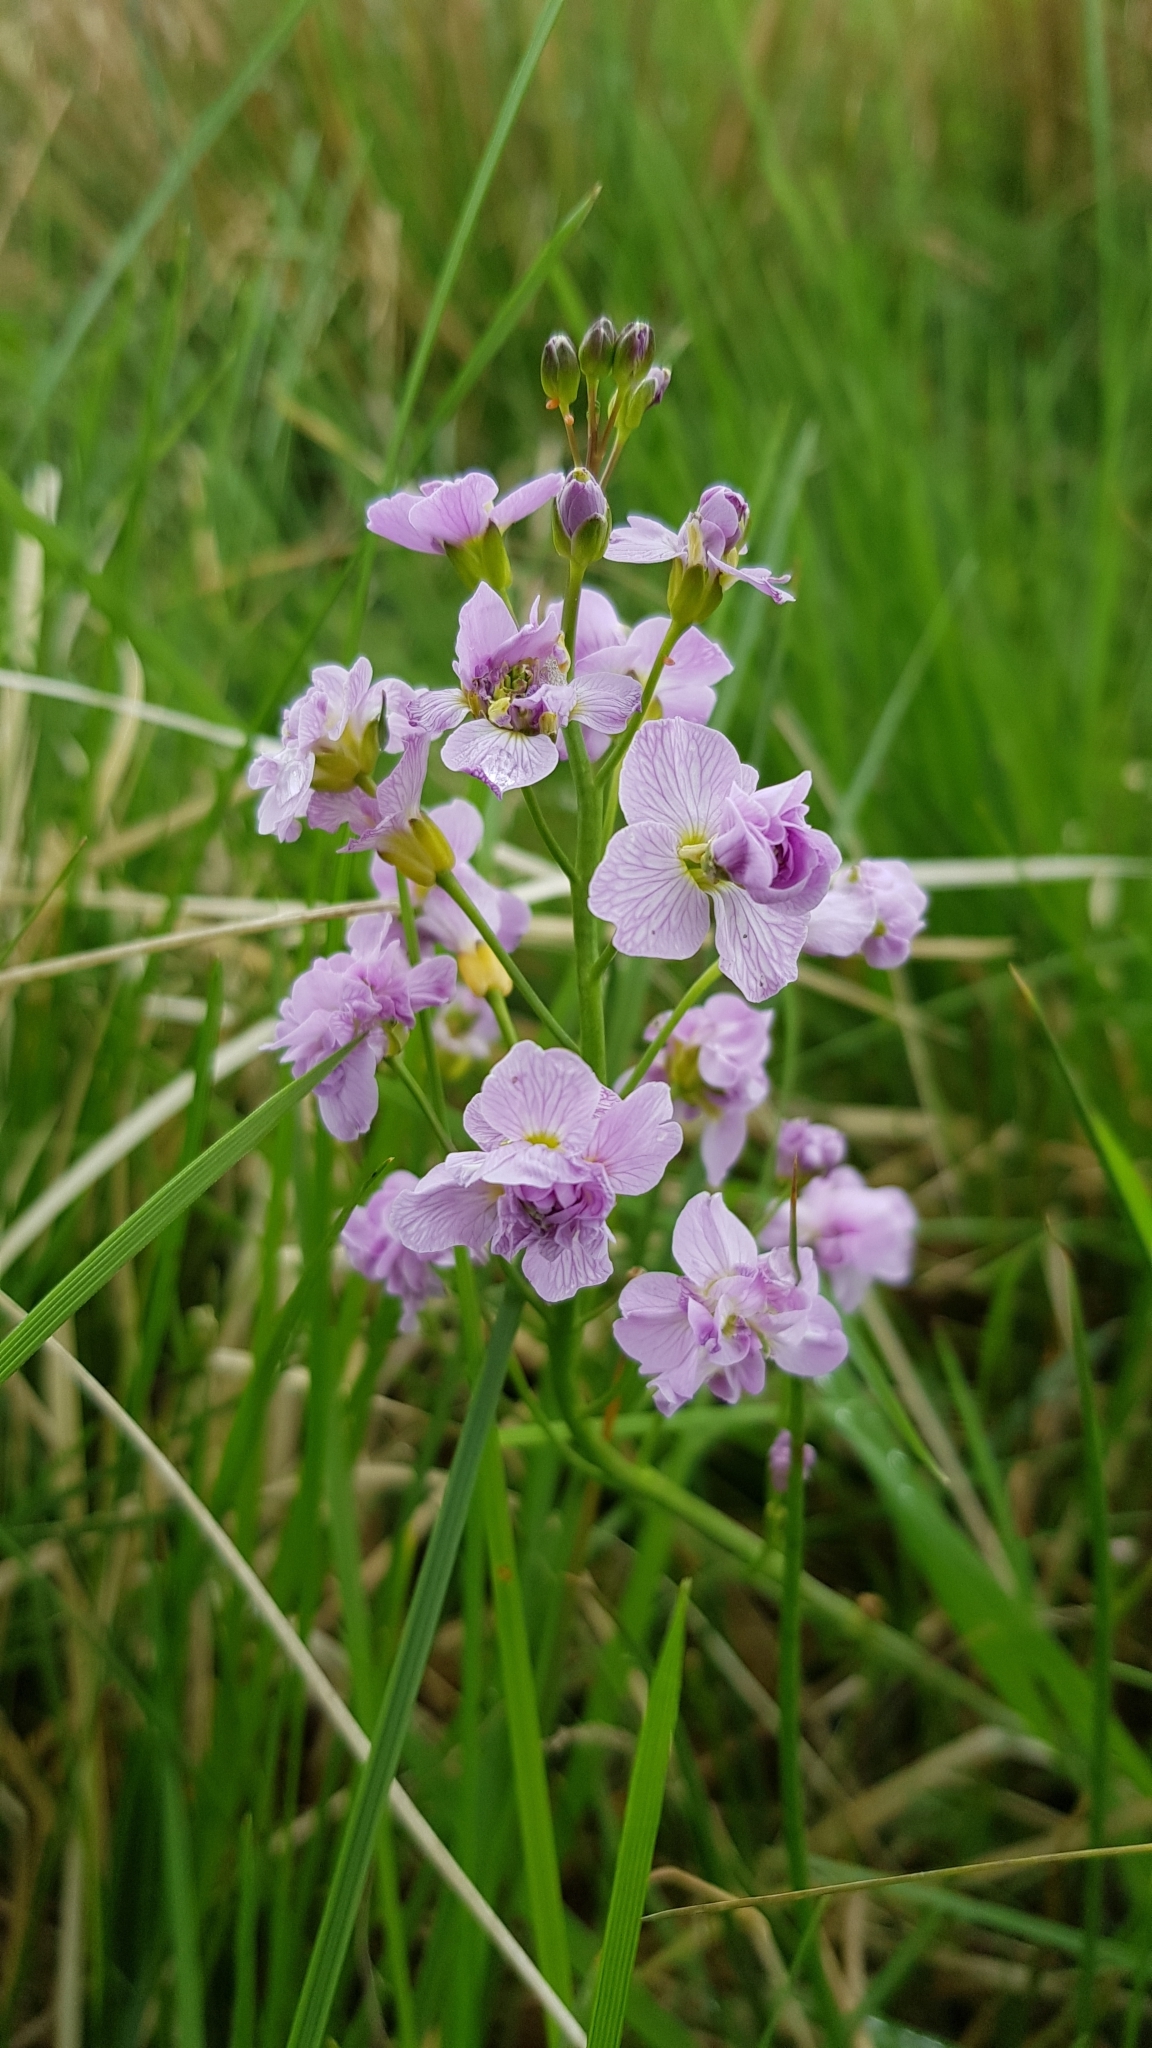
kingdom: Plantae
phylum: Tracheophyta
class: Magnoliopsida
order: Brassicales
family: Brassicaceae
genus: Cardamine
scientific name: Cardamine pratensis
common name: Cuckoo flower
